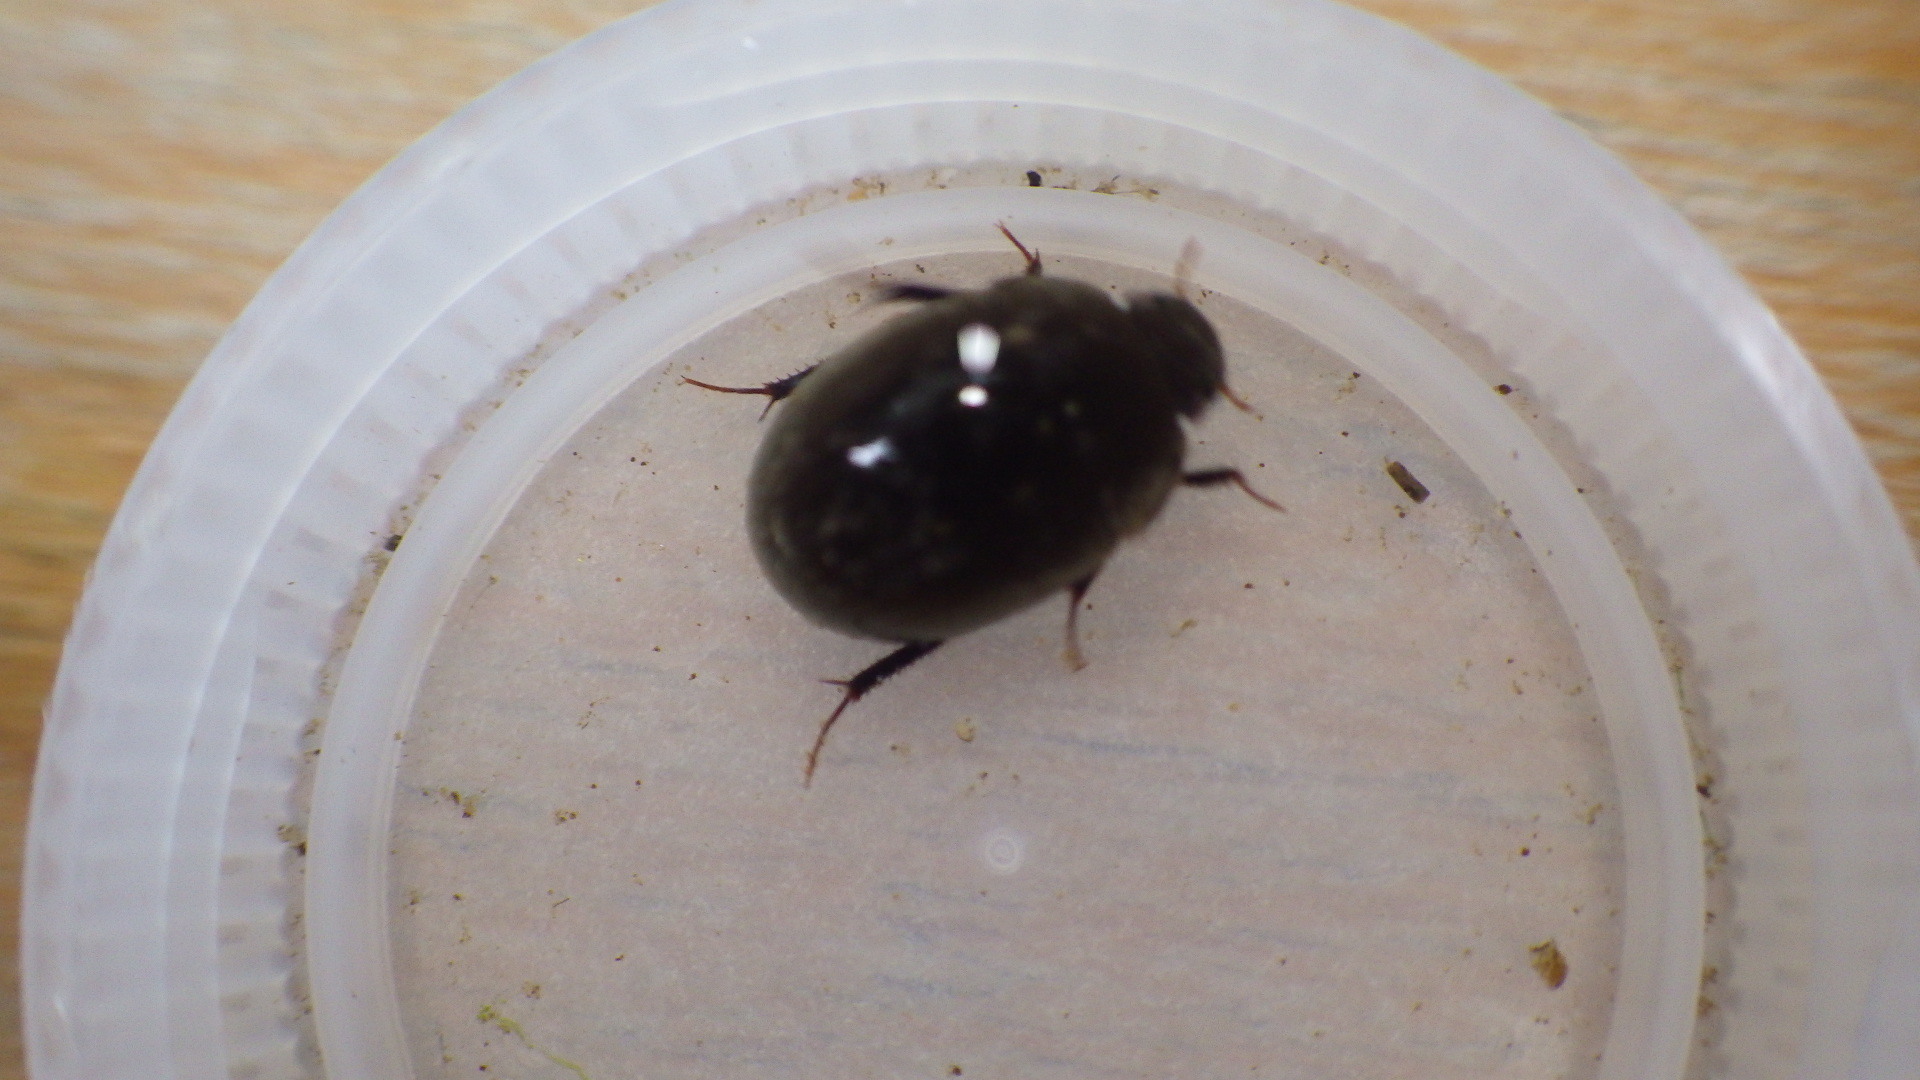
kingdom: Animalia
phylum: Arthropoda
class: Insecta
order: Coleoptera
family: Hydrophilidae
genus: Limnohydrobius
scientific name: Limnohydrobius
